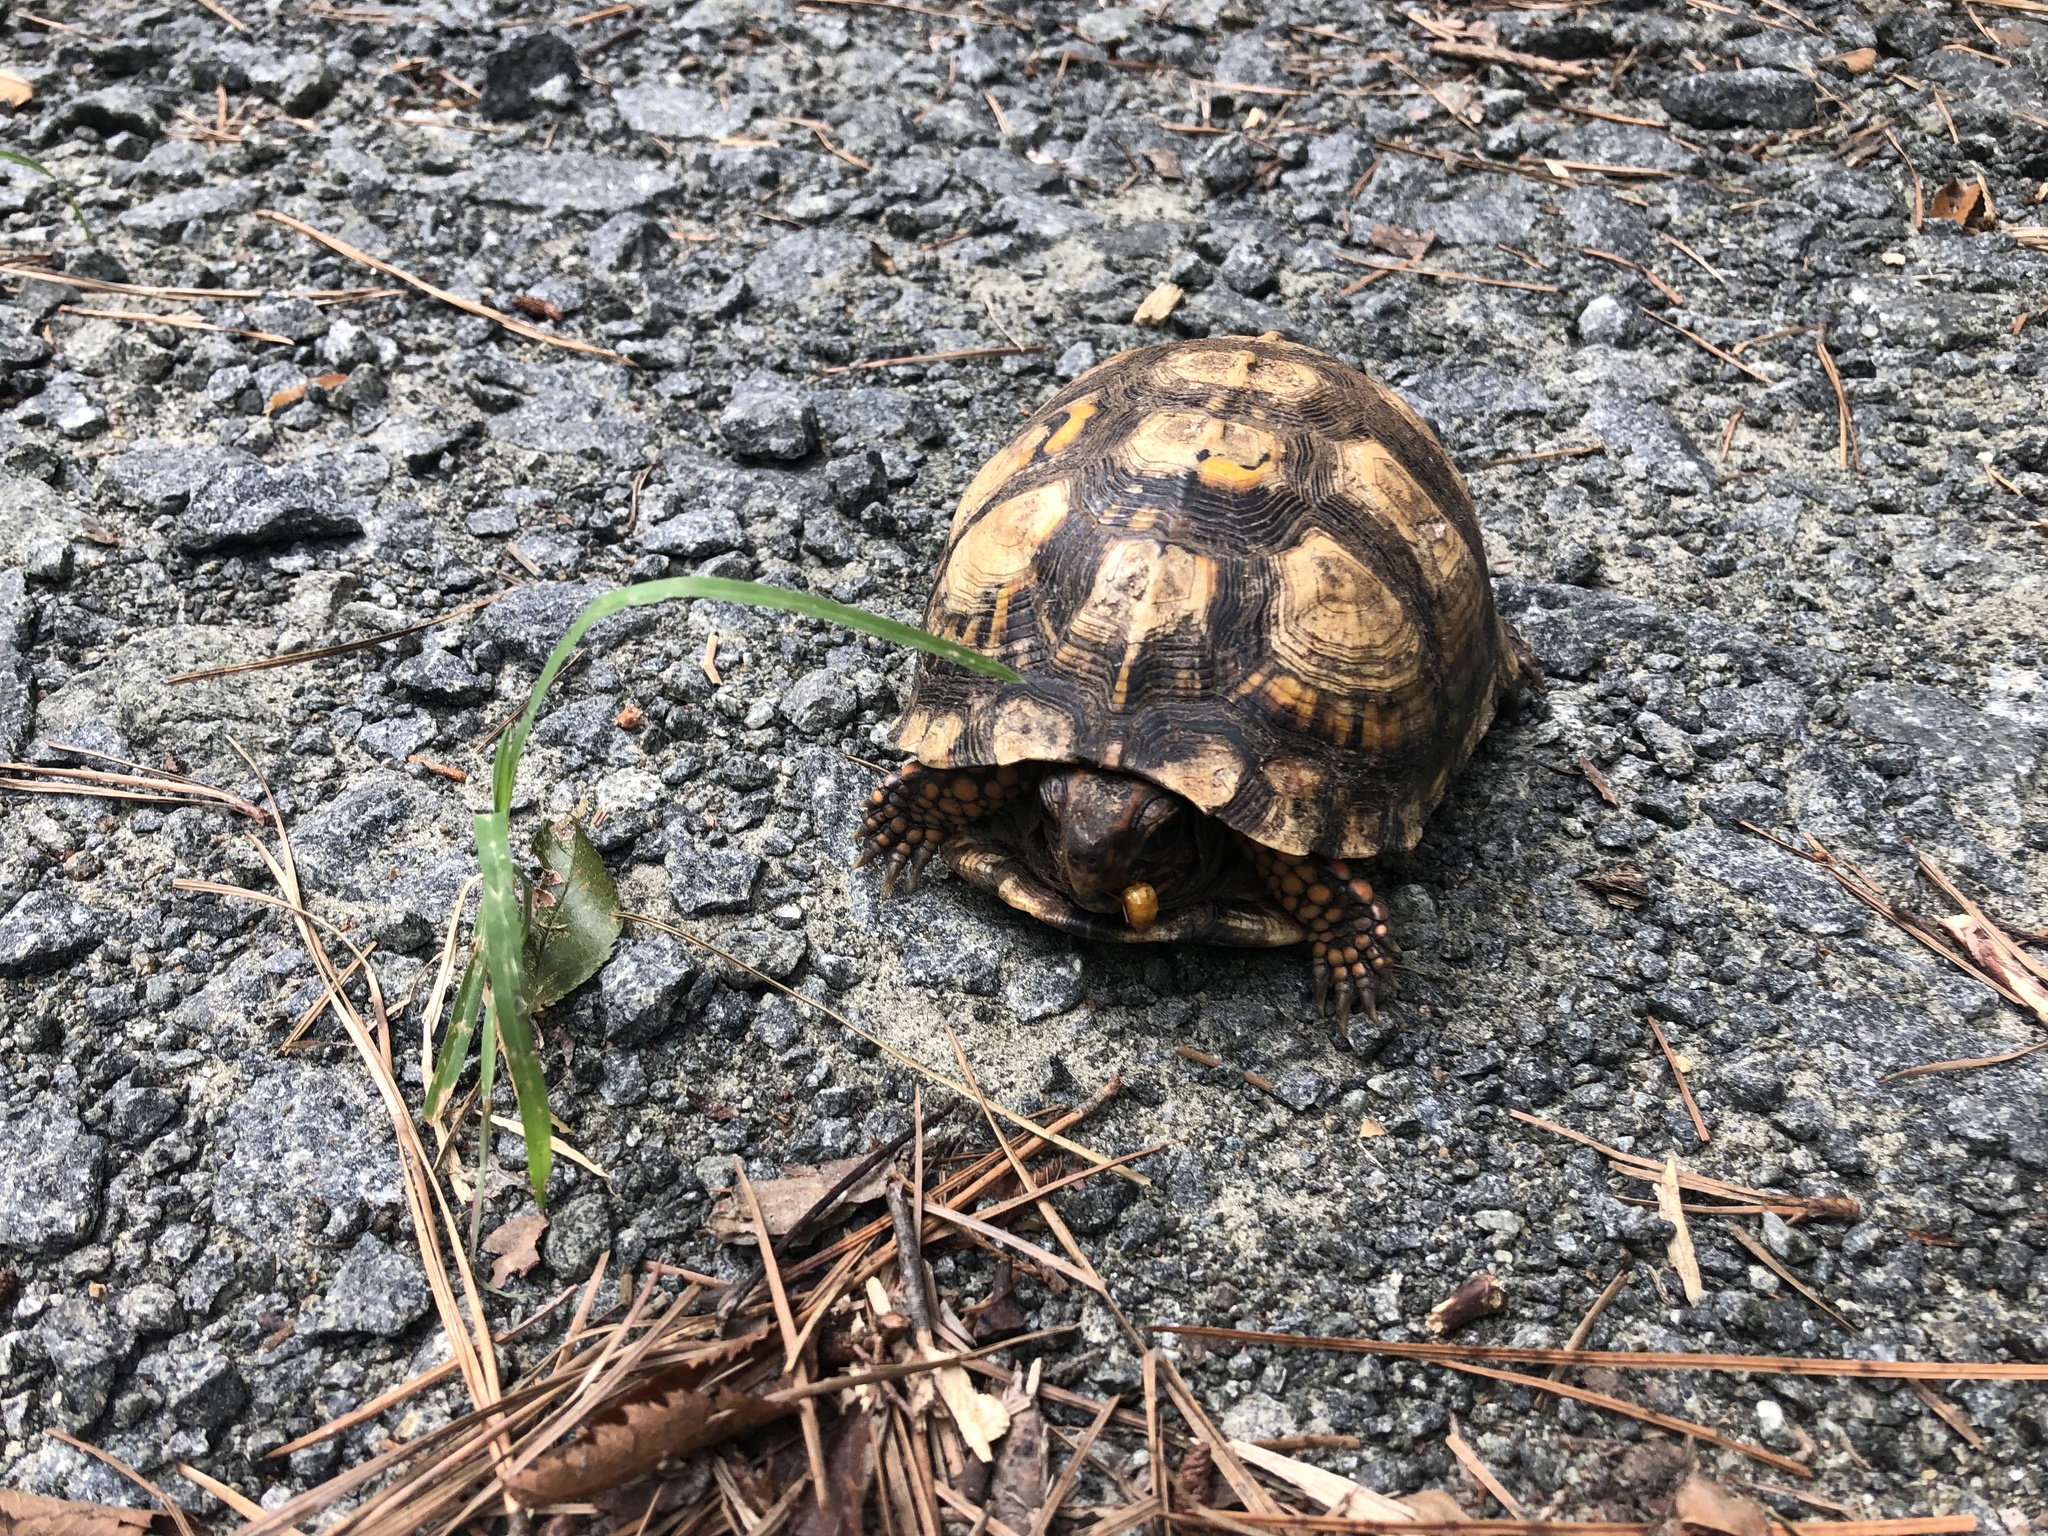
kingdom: Animalia
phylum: Chordata
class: Testudines
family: Emydidae
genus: Terrapene
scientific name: Terrapene carolina
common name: Common box turtle
